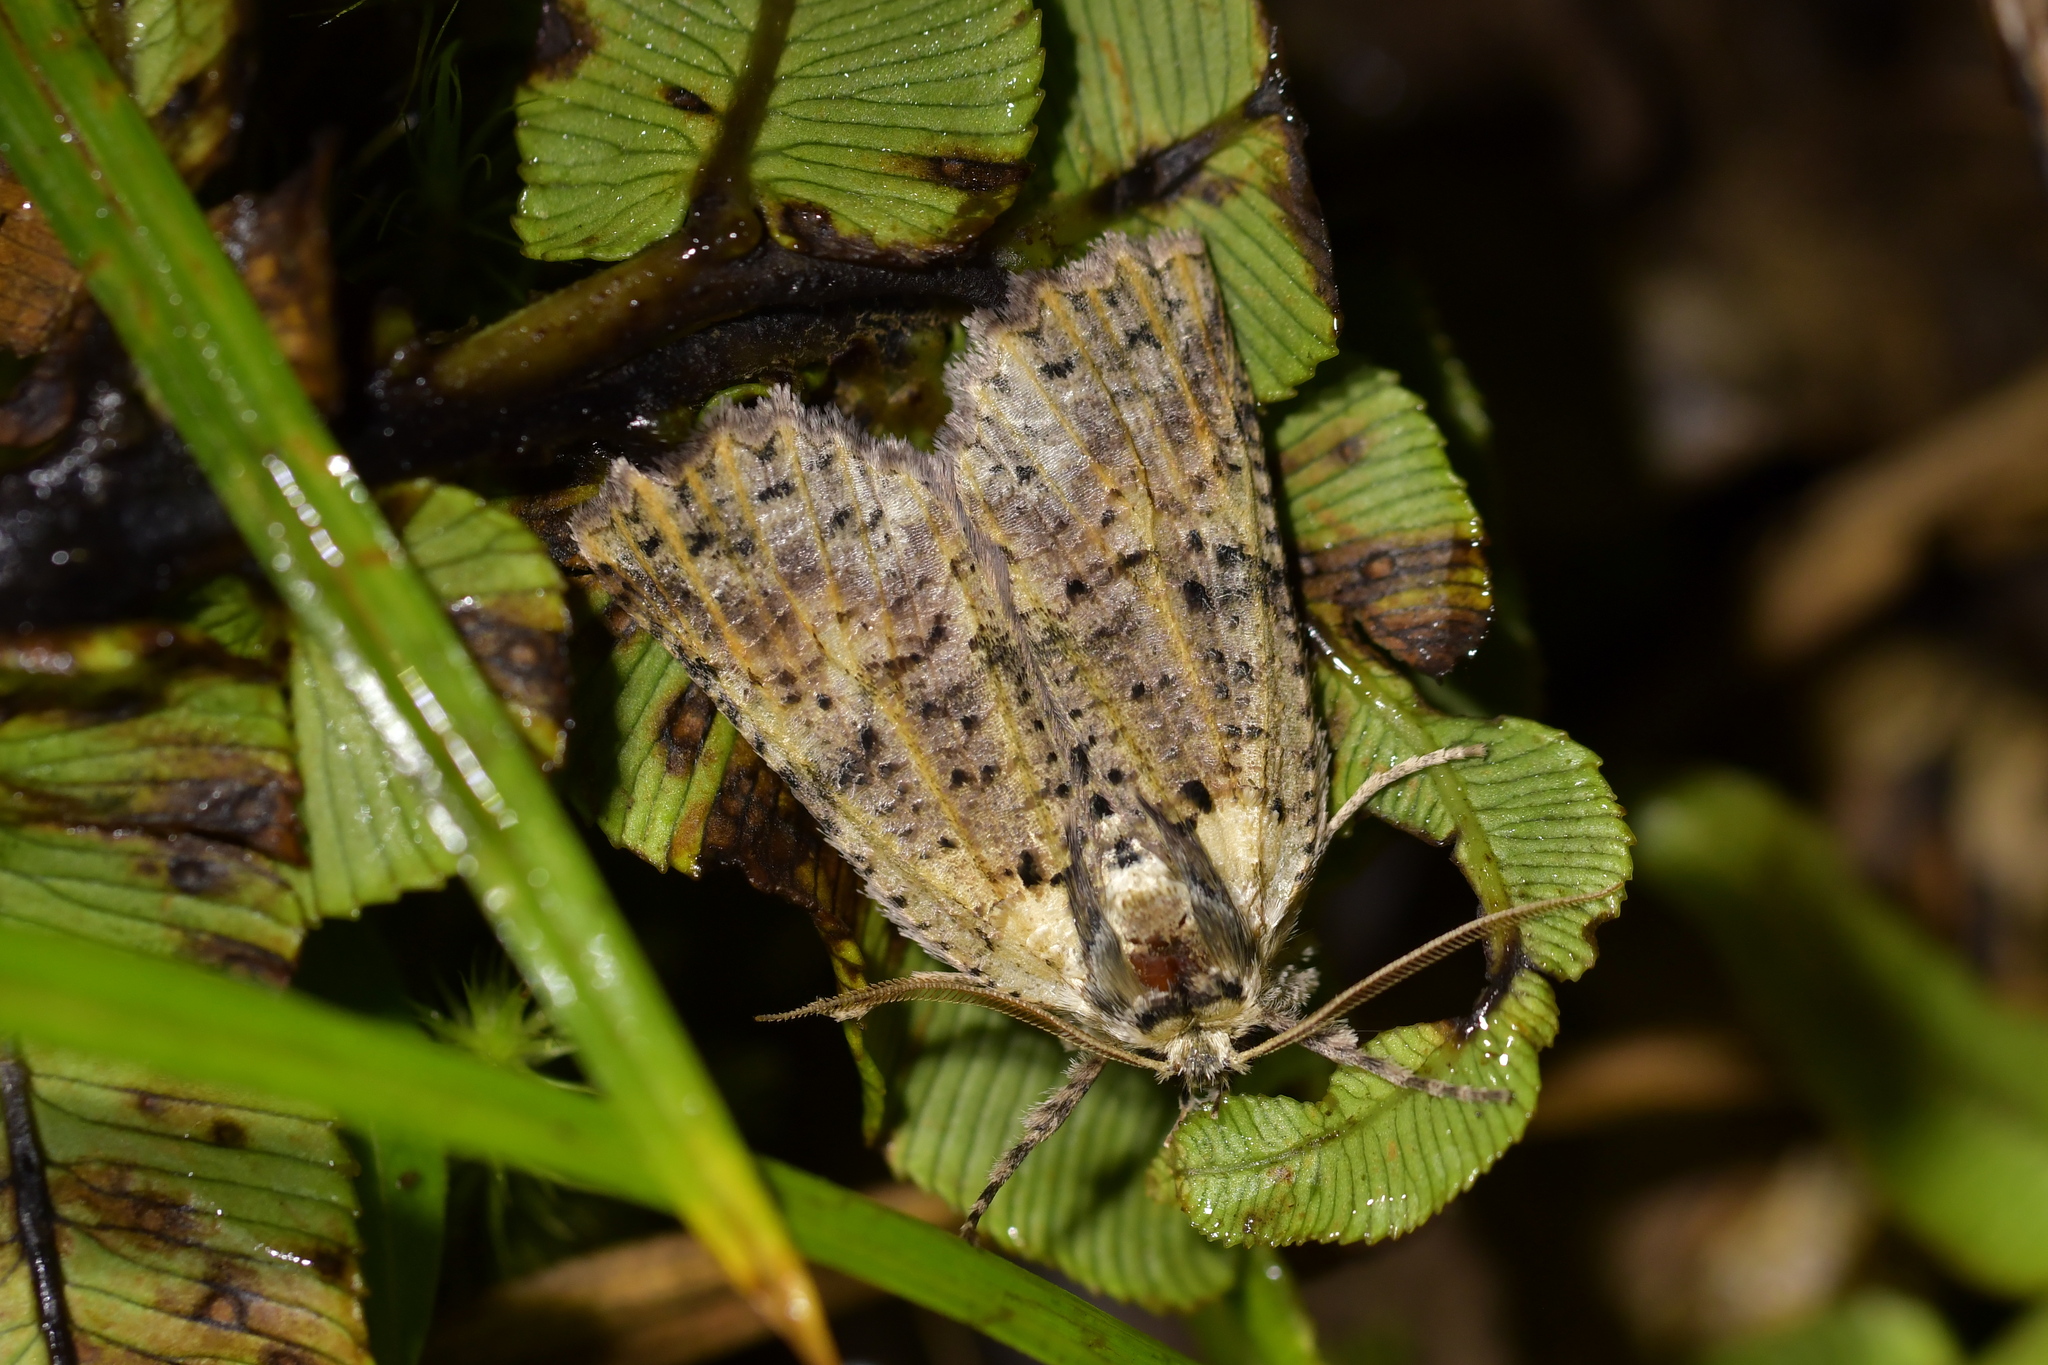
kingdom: Animalia
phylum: Arthropoda
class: Insecta
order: Lepidoptera
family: Geometridae
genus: Declana
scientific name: Declana floccosa
